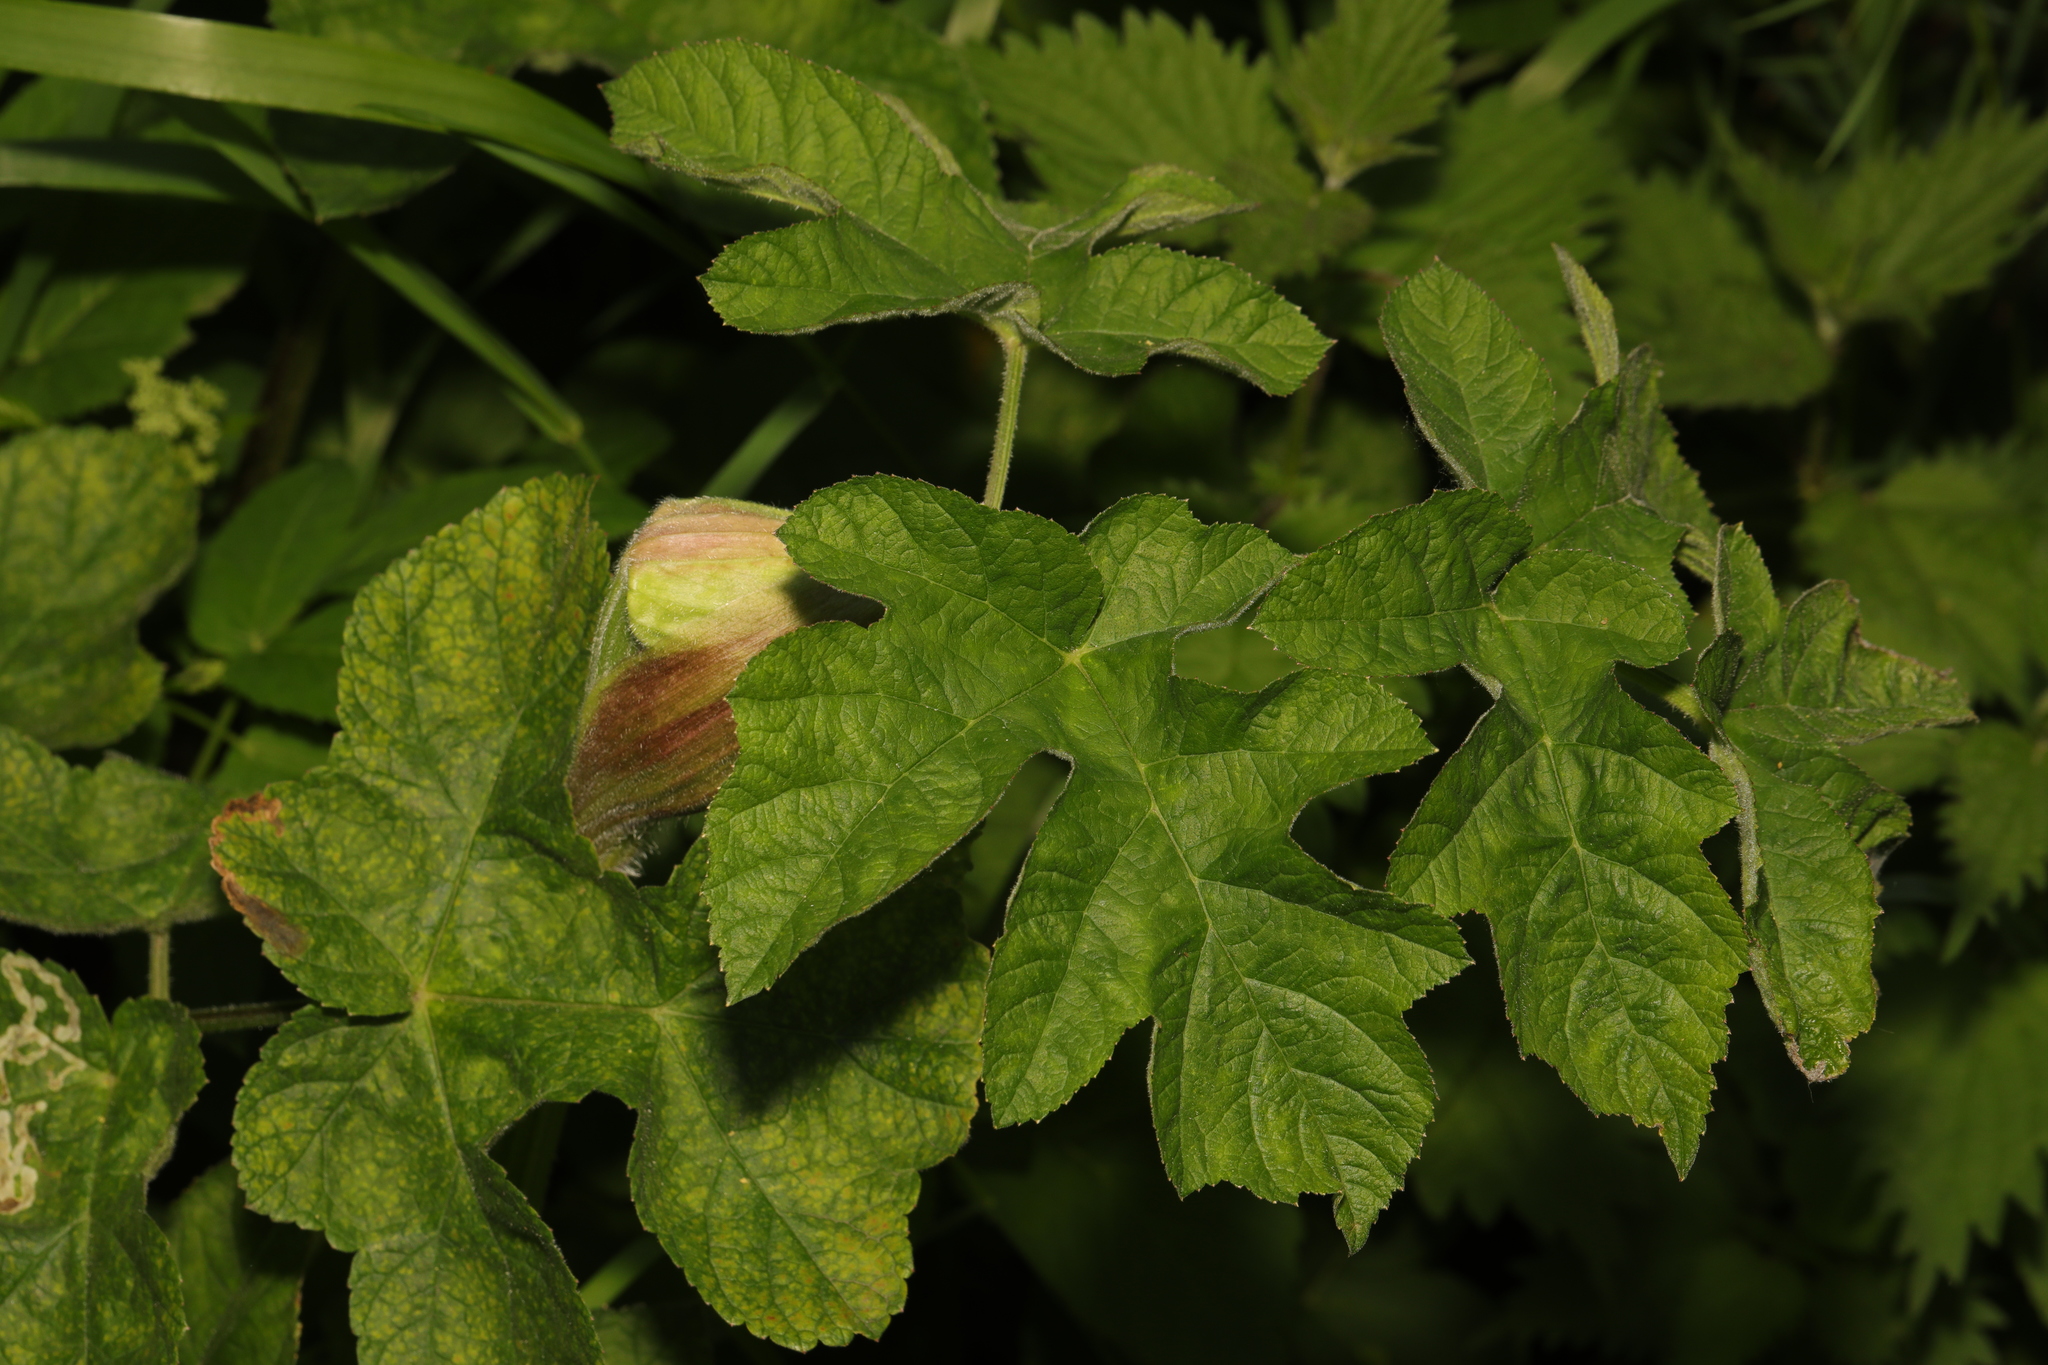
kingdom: Plantae
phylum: Tracheophyta
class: Magnoliopsida
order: Apiales
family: Apiaceae
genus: Heracleum
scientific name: Heracleum sphondylium
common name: Hogweed
